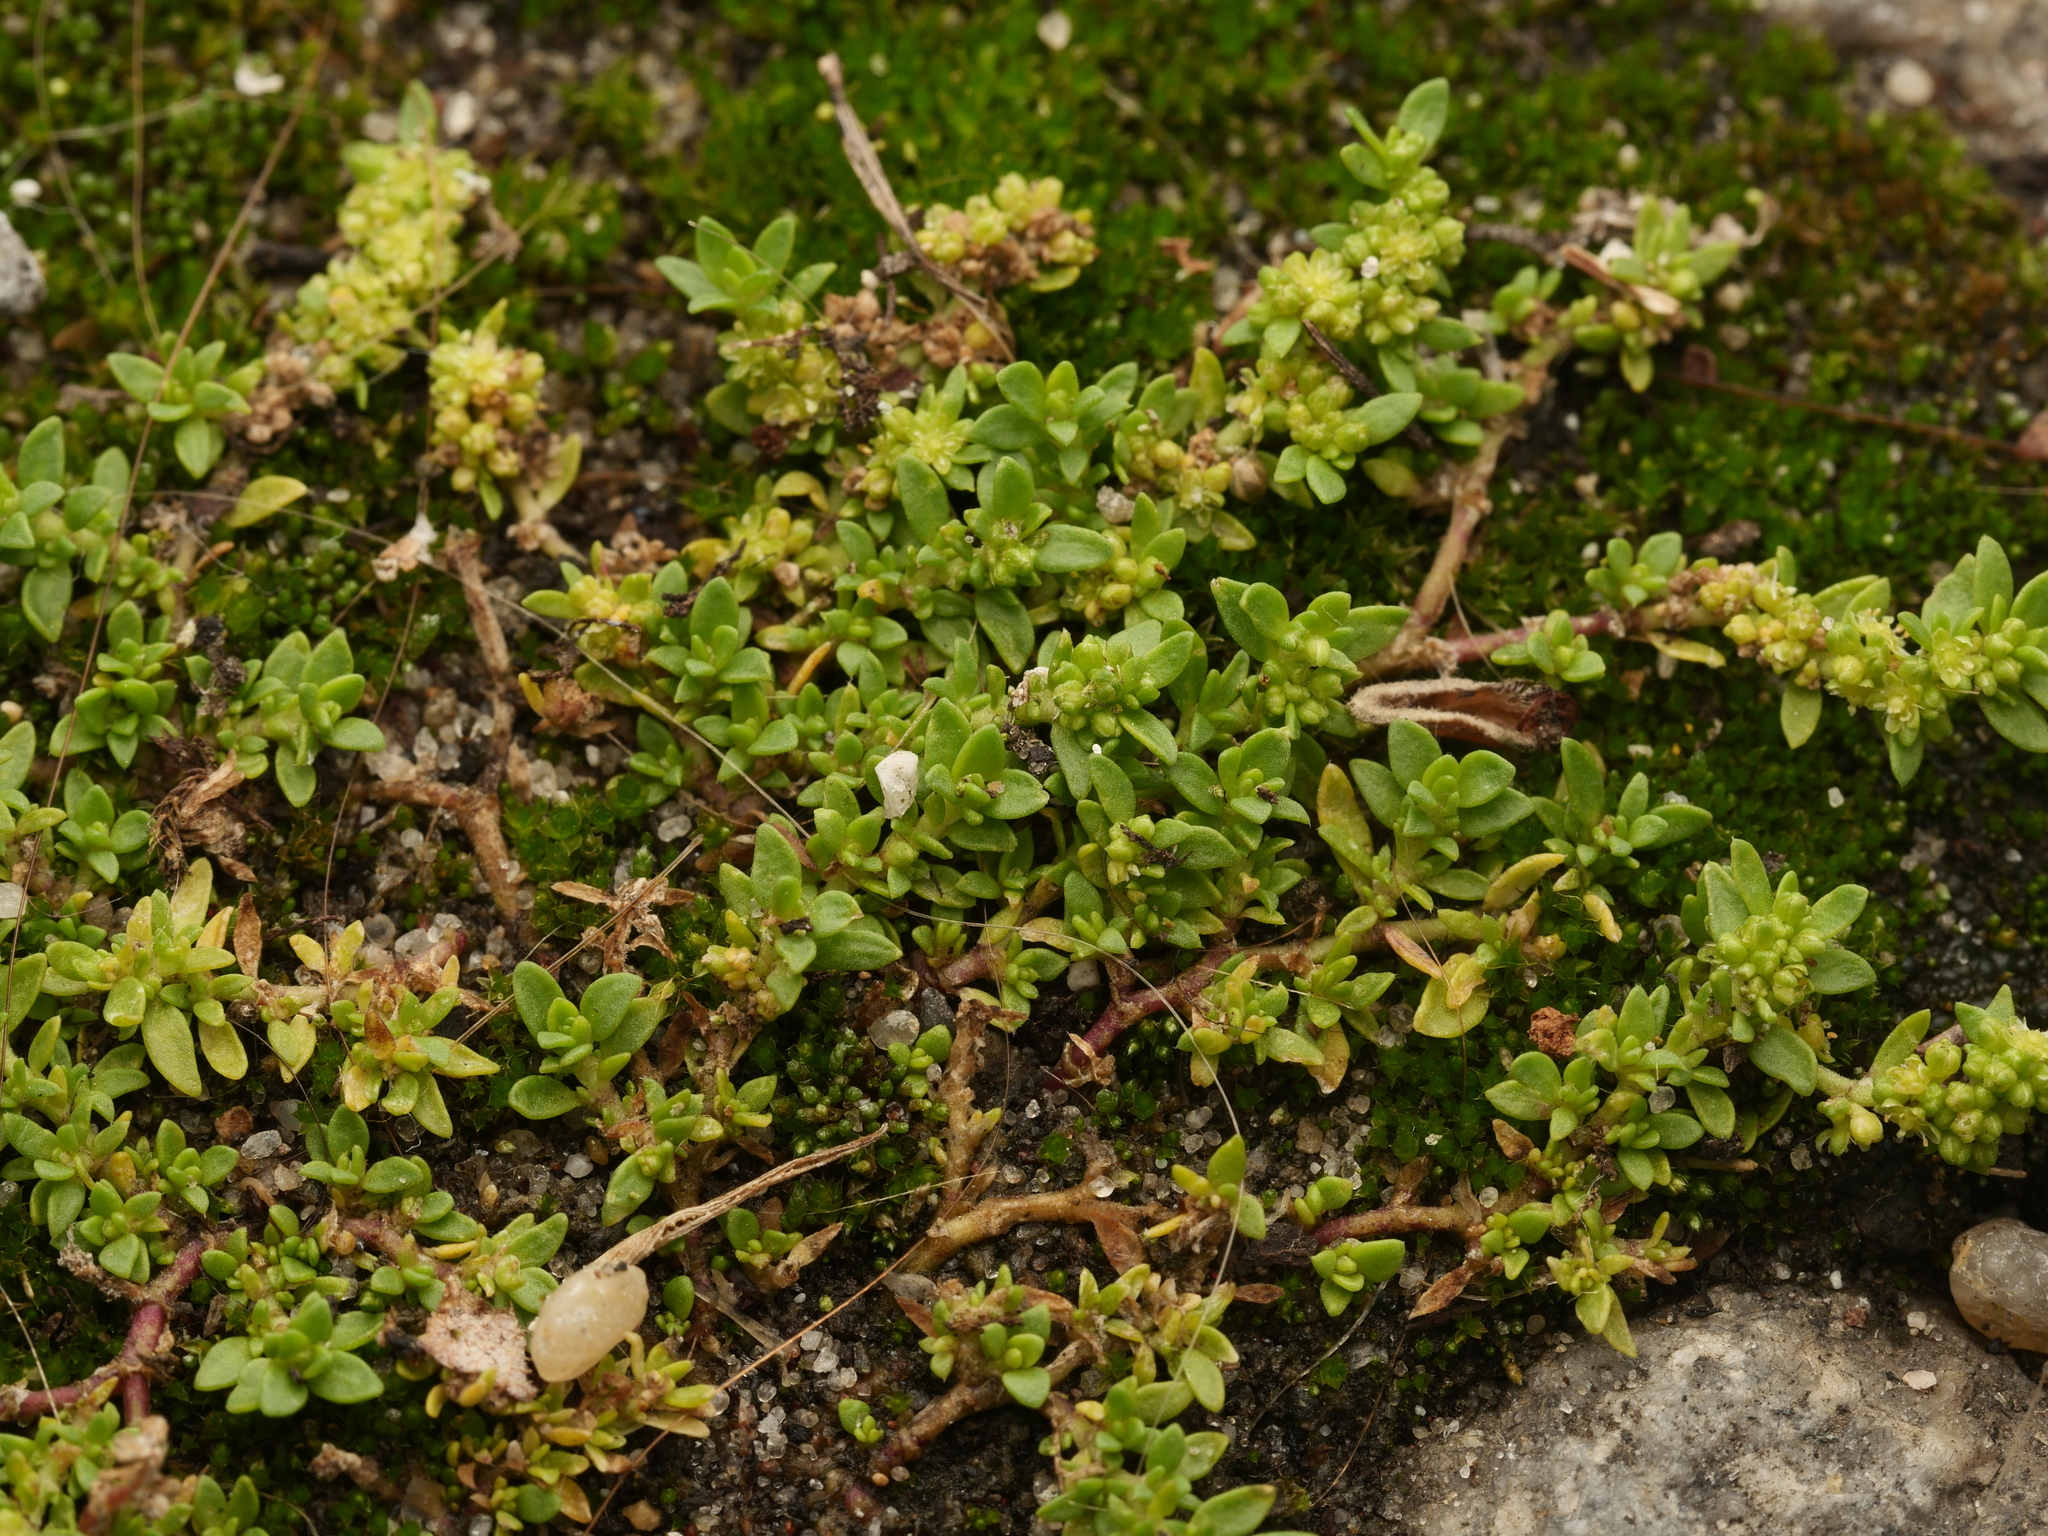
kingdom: Plantae
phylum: Tracheophyta
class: Magnoliopsida
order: Caryophyllales
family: Caryophyllaceae
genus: Herniaria
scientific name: Herniaria glabra
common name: Smooth rupturewort
